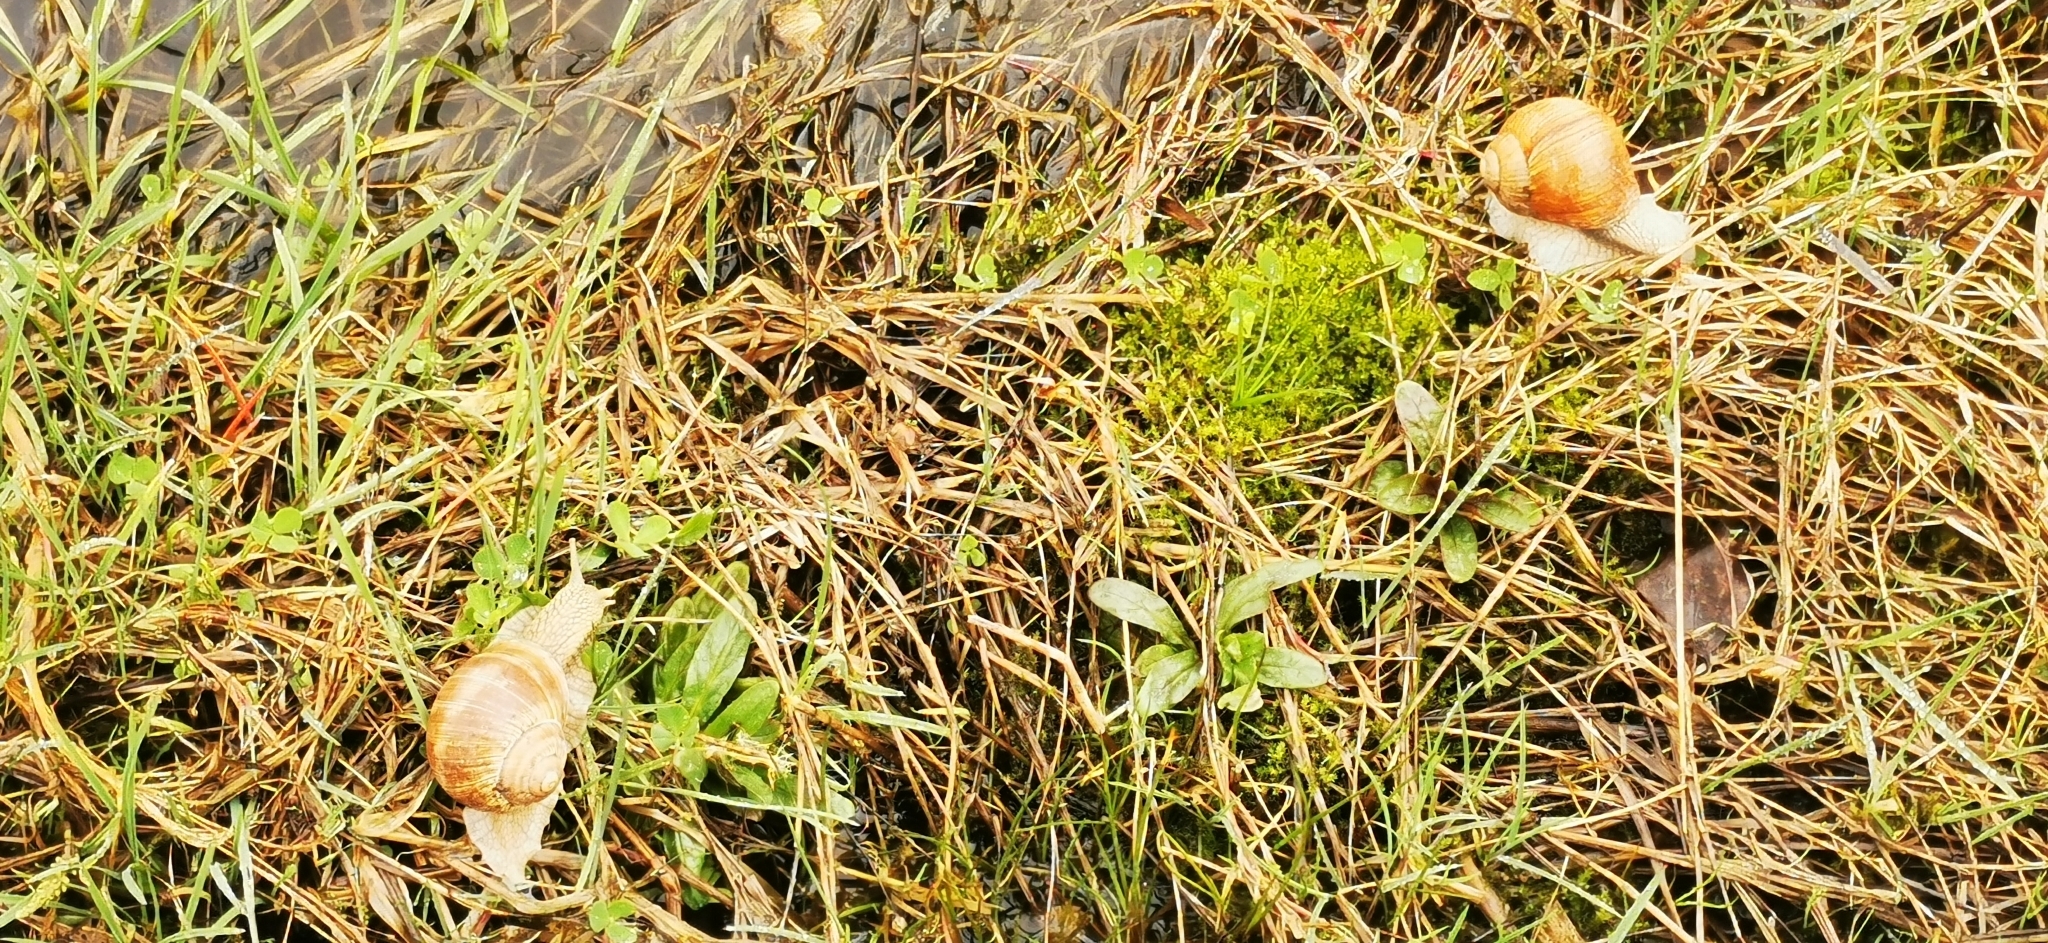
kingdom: Animalia
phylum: Mollusca
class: Gastropoda
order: Stylommatophora
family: Helicidae
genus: Helix
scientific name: Helix pomatia
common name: Roman snail
